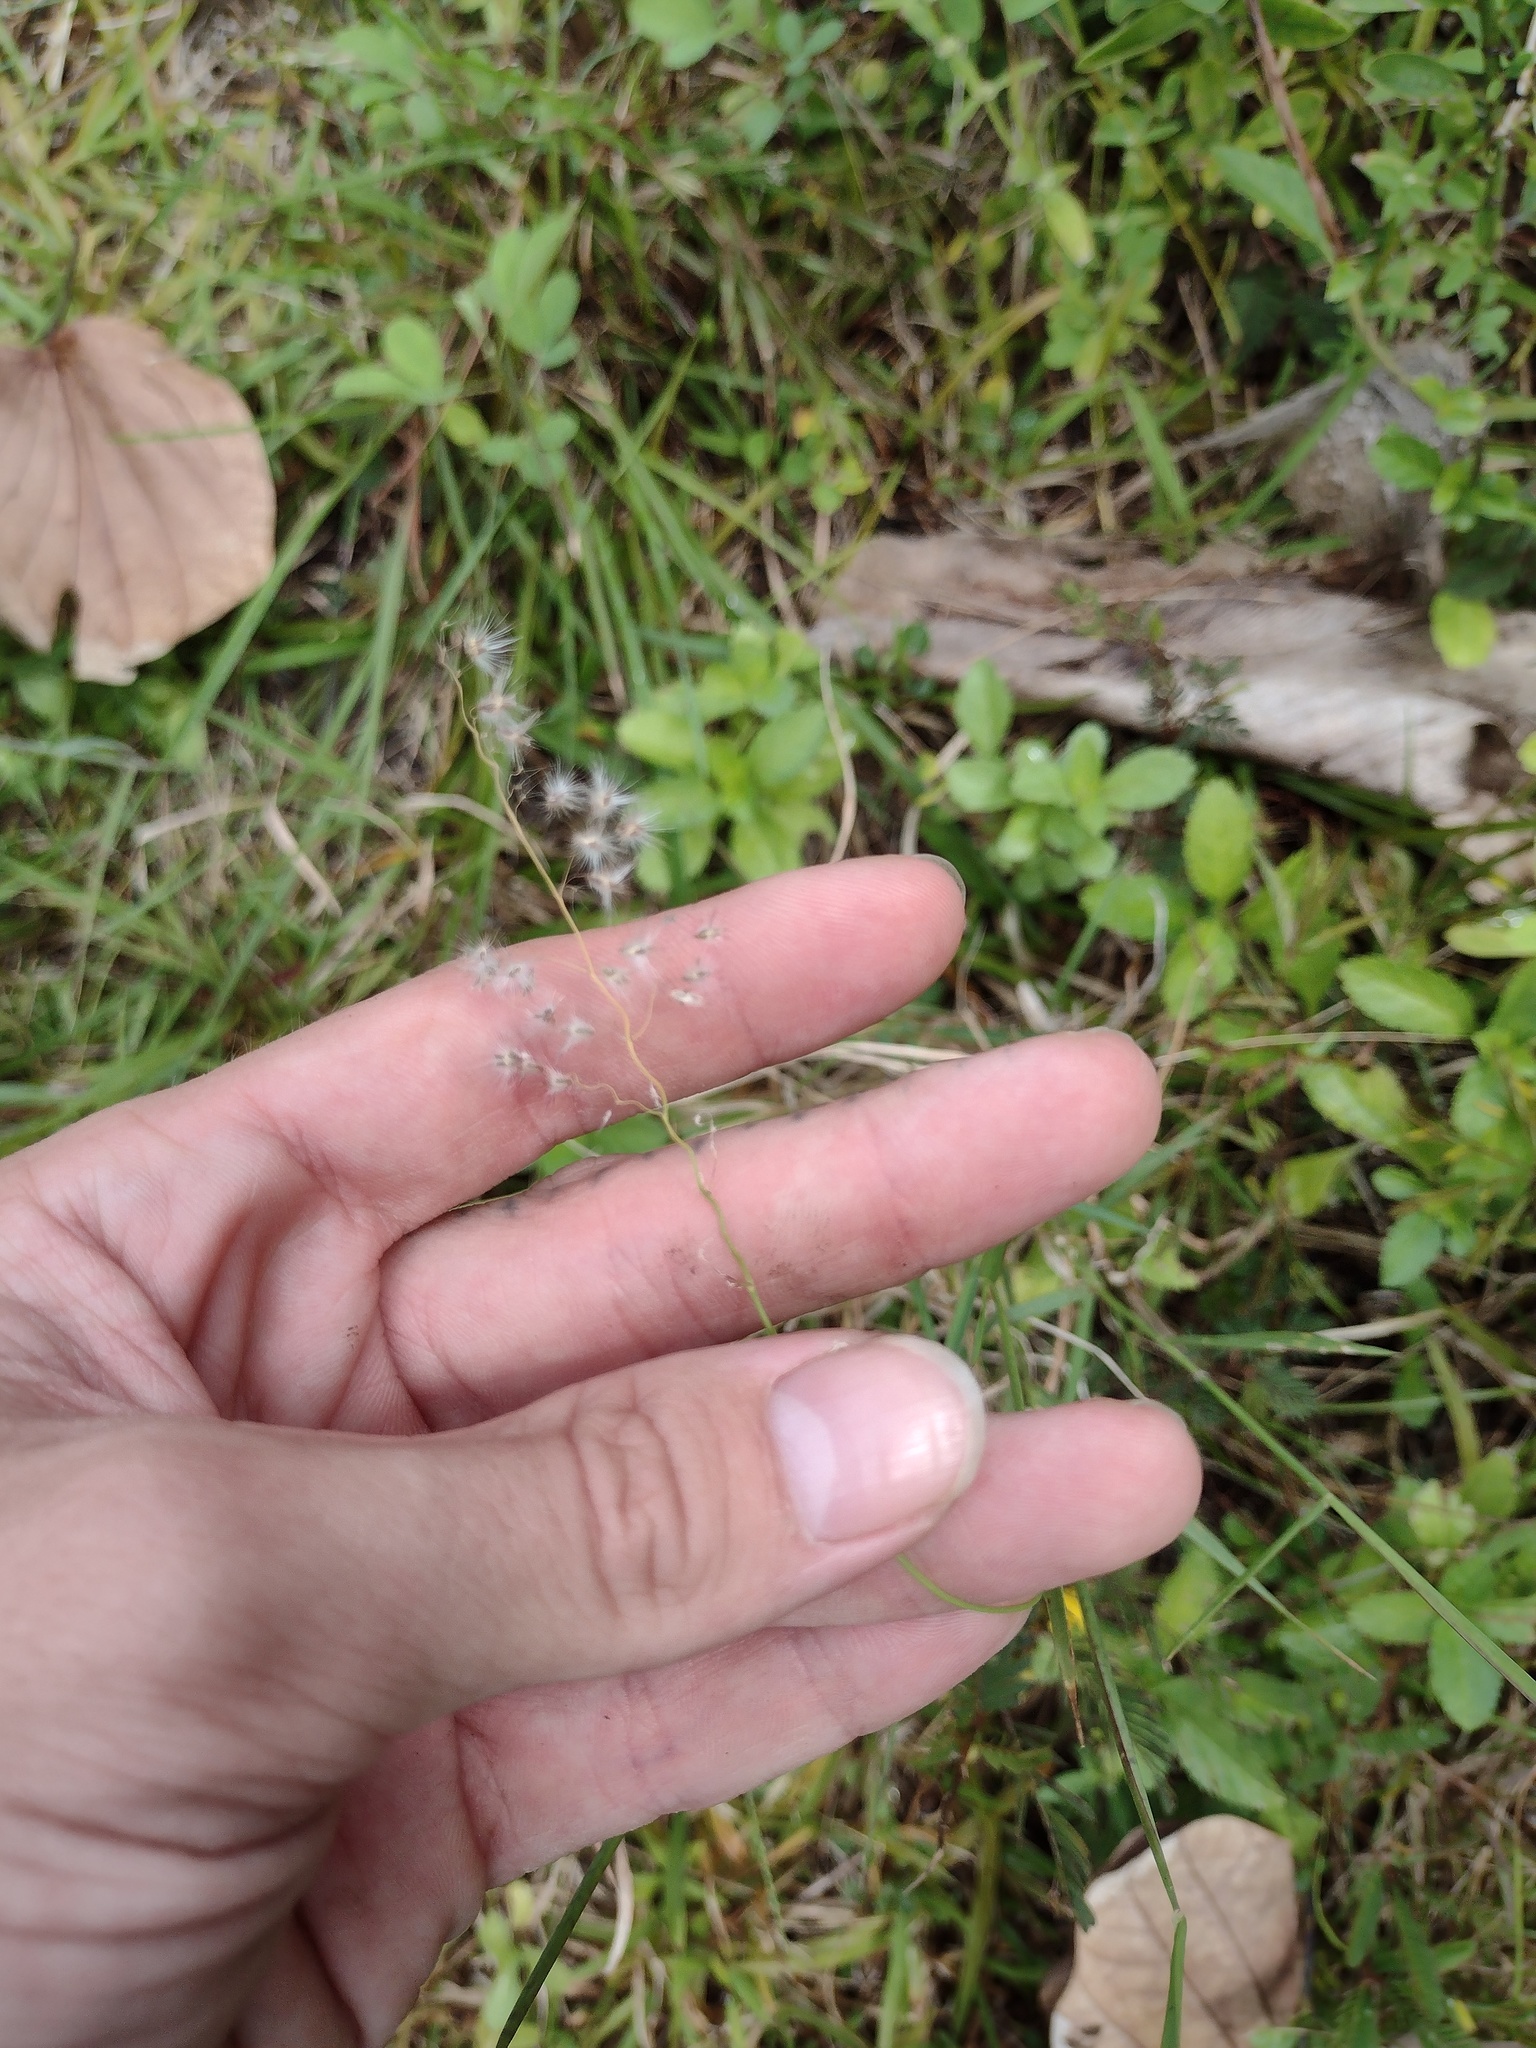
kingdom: Plantae
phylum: Tracheophyta
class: Liliopsida
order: Poales
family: Poaceae
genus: Melinis
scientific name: Melinis repens
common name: Rose natal grass
